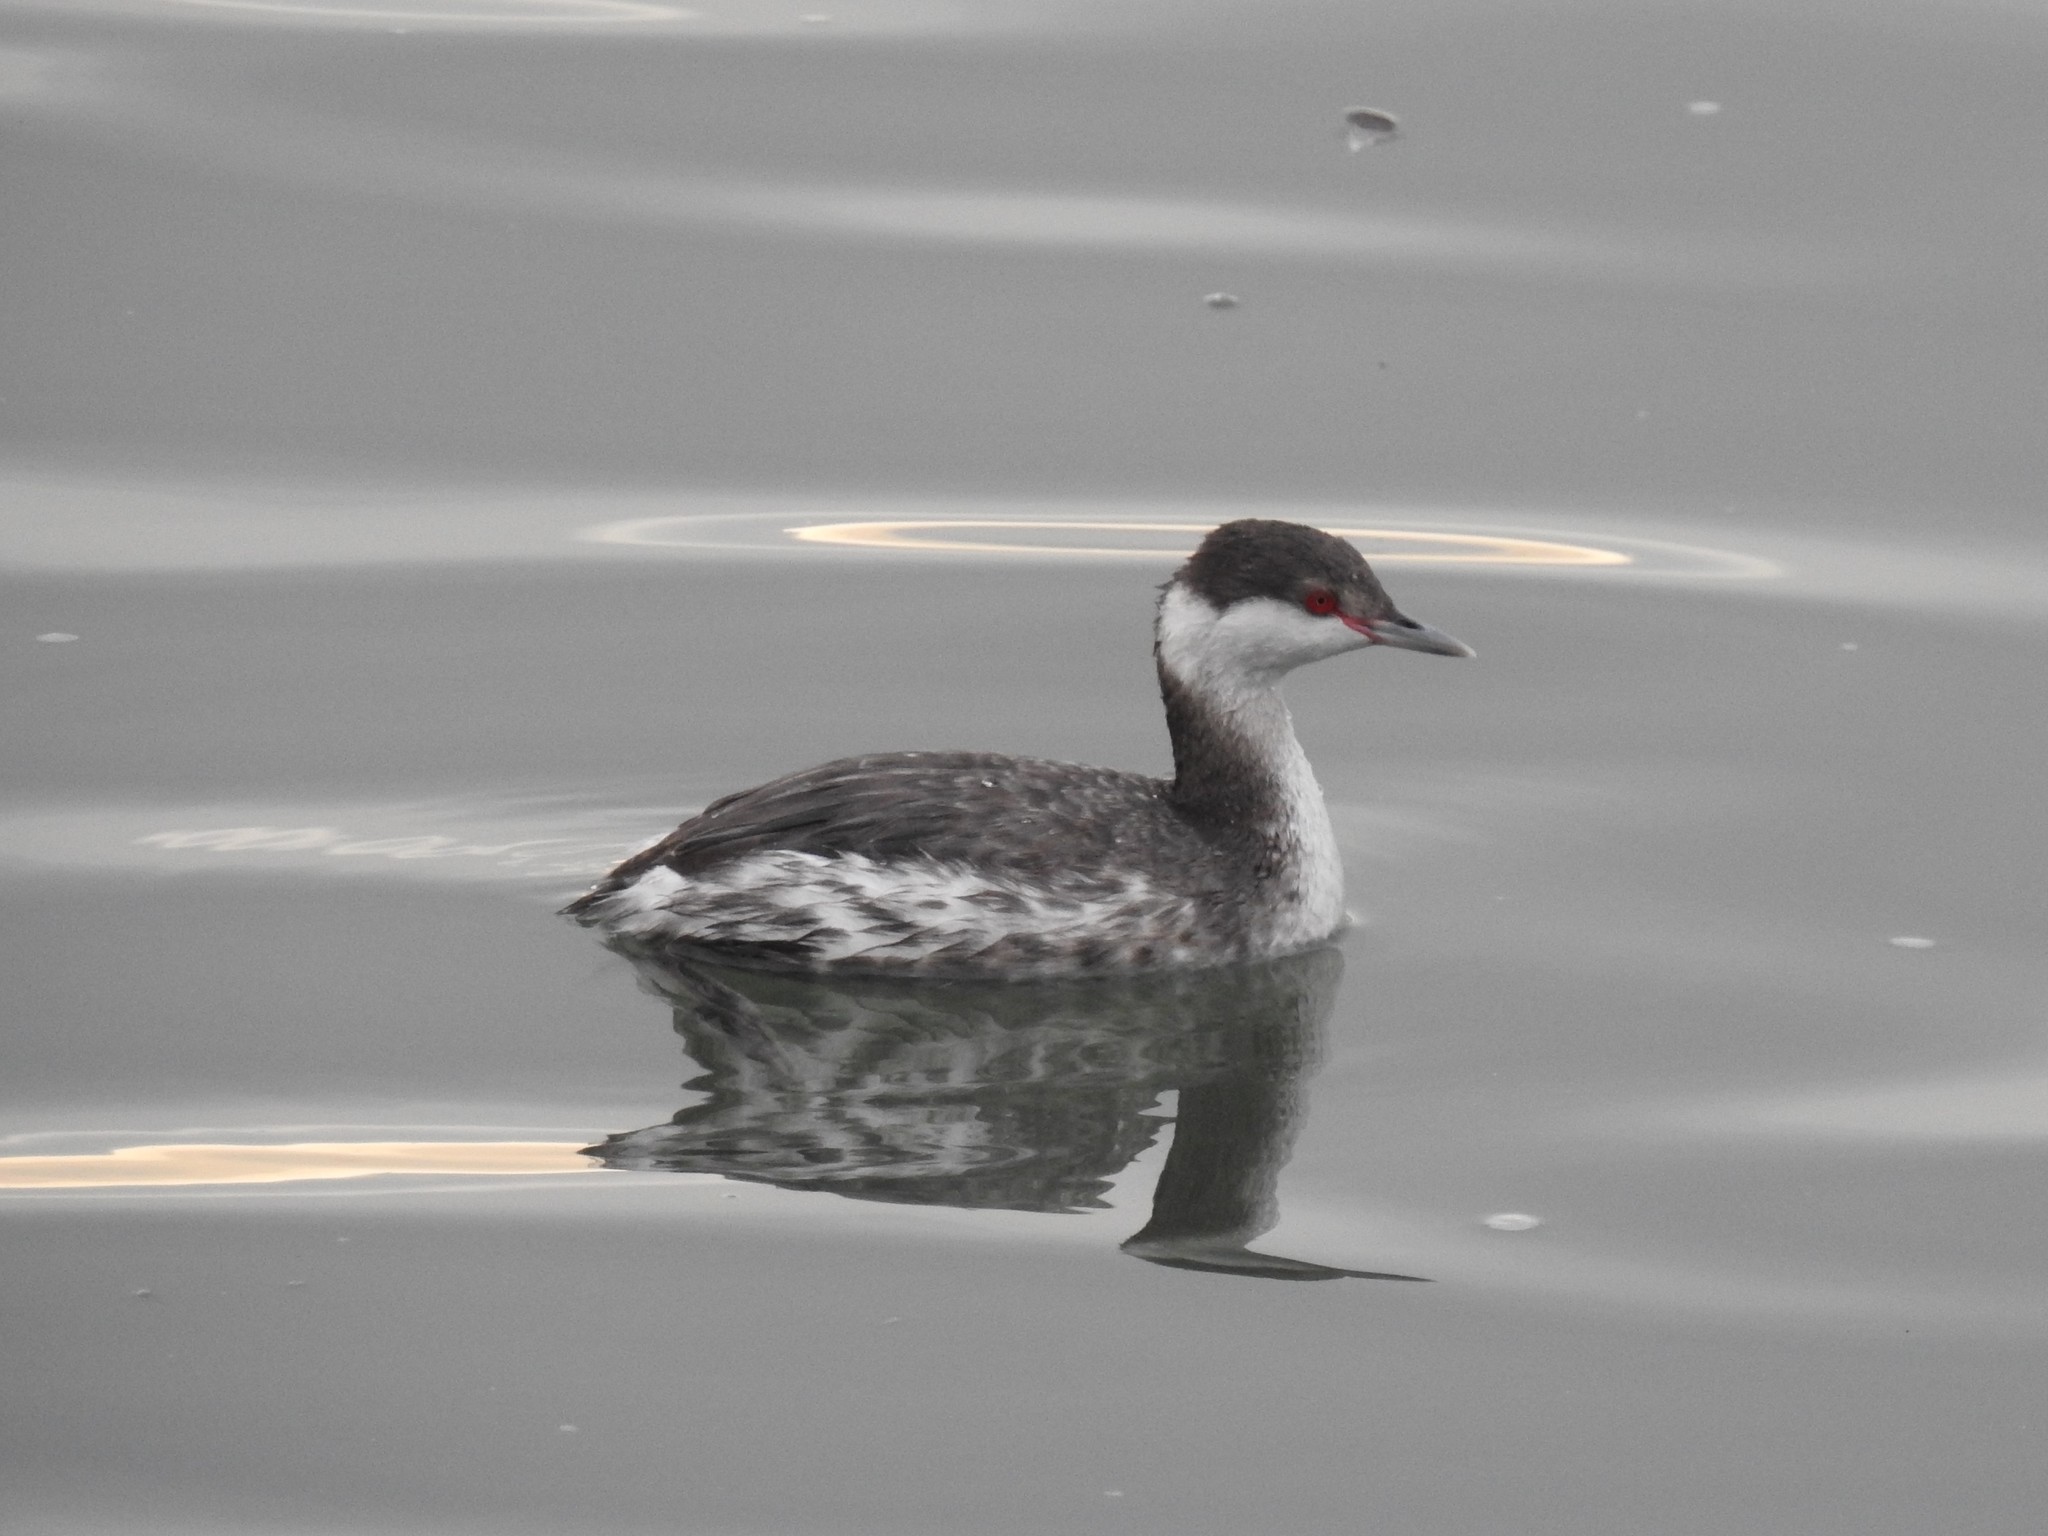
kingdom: Animalia
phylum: Chordata
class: Aves
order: Podicipediformes
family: Podicipedidae
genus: Podiceps
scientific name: Podiceps auritus
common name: Horned grebe
